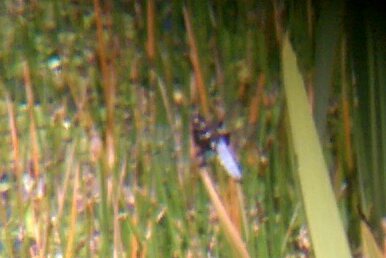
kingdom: Animalia
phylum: Arthropoda
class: Insecta
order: Odonata
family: Libellulidae
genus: Libellula
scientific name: Libellula depressa
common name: Broad-bodied chaser
